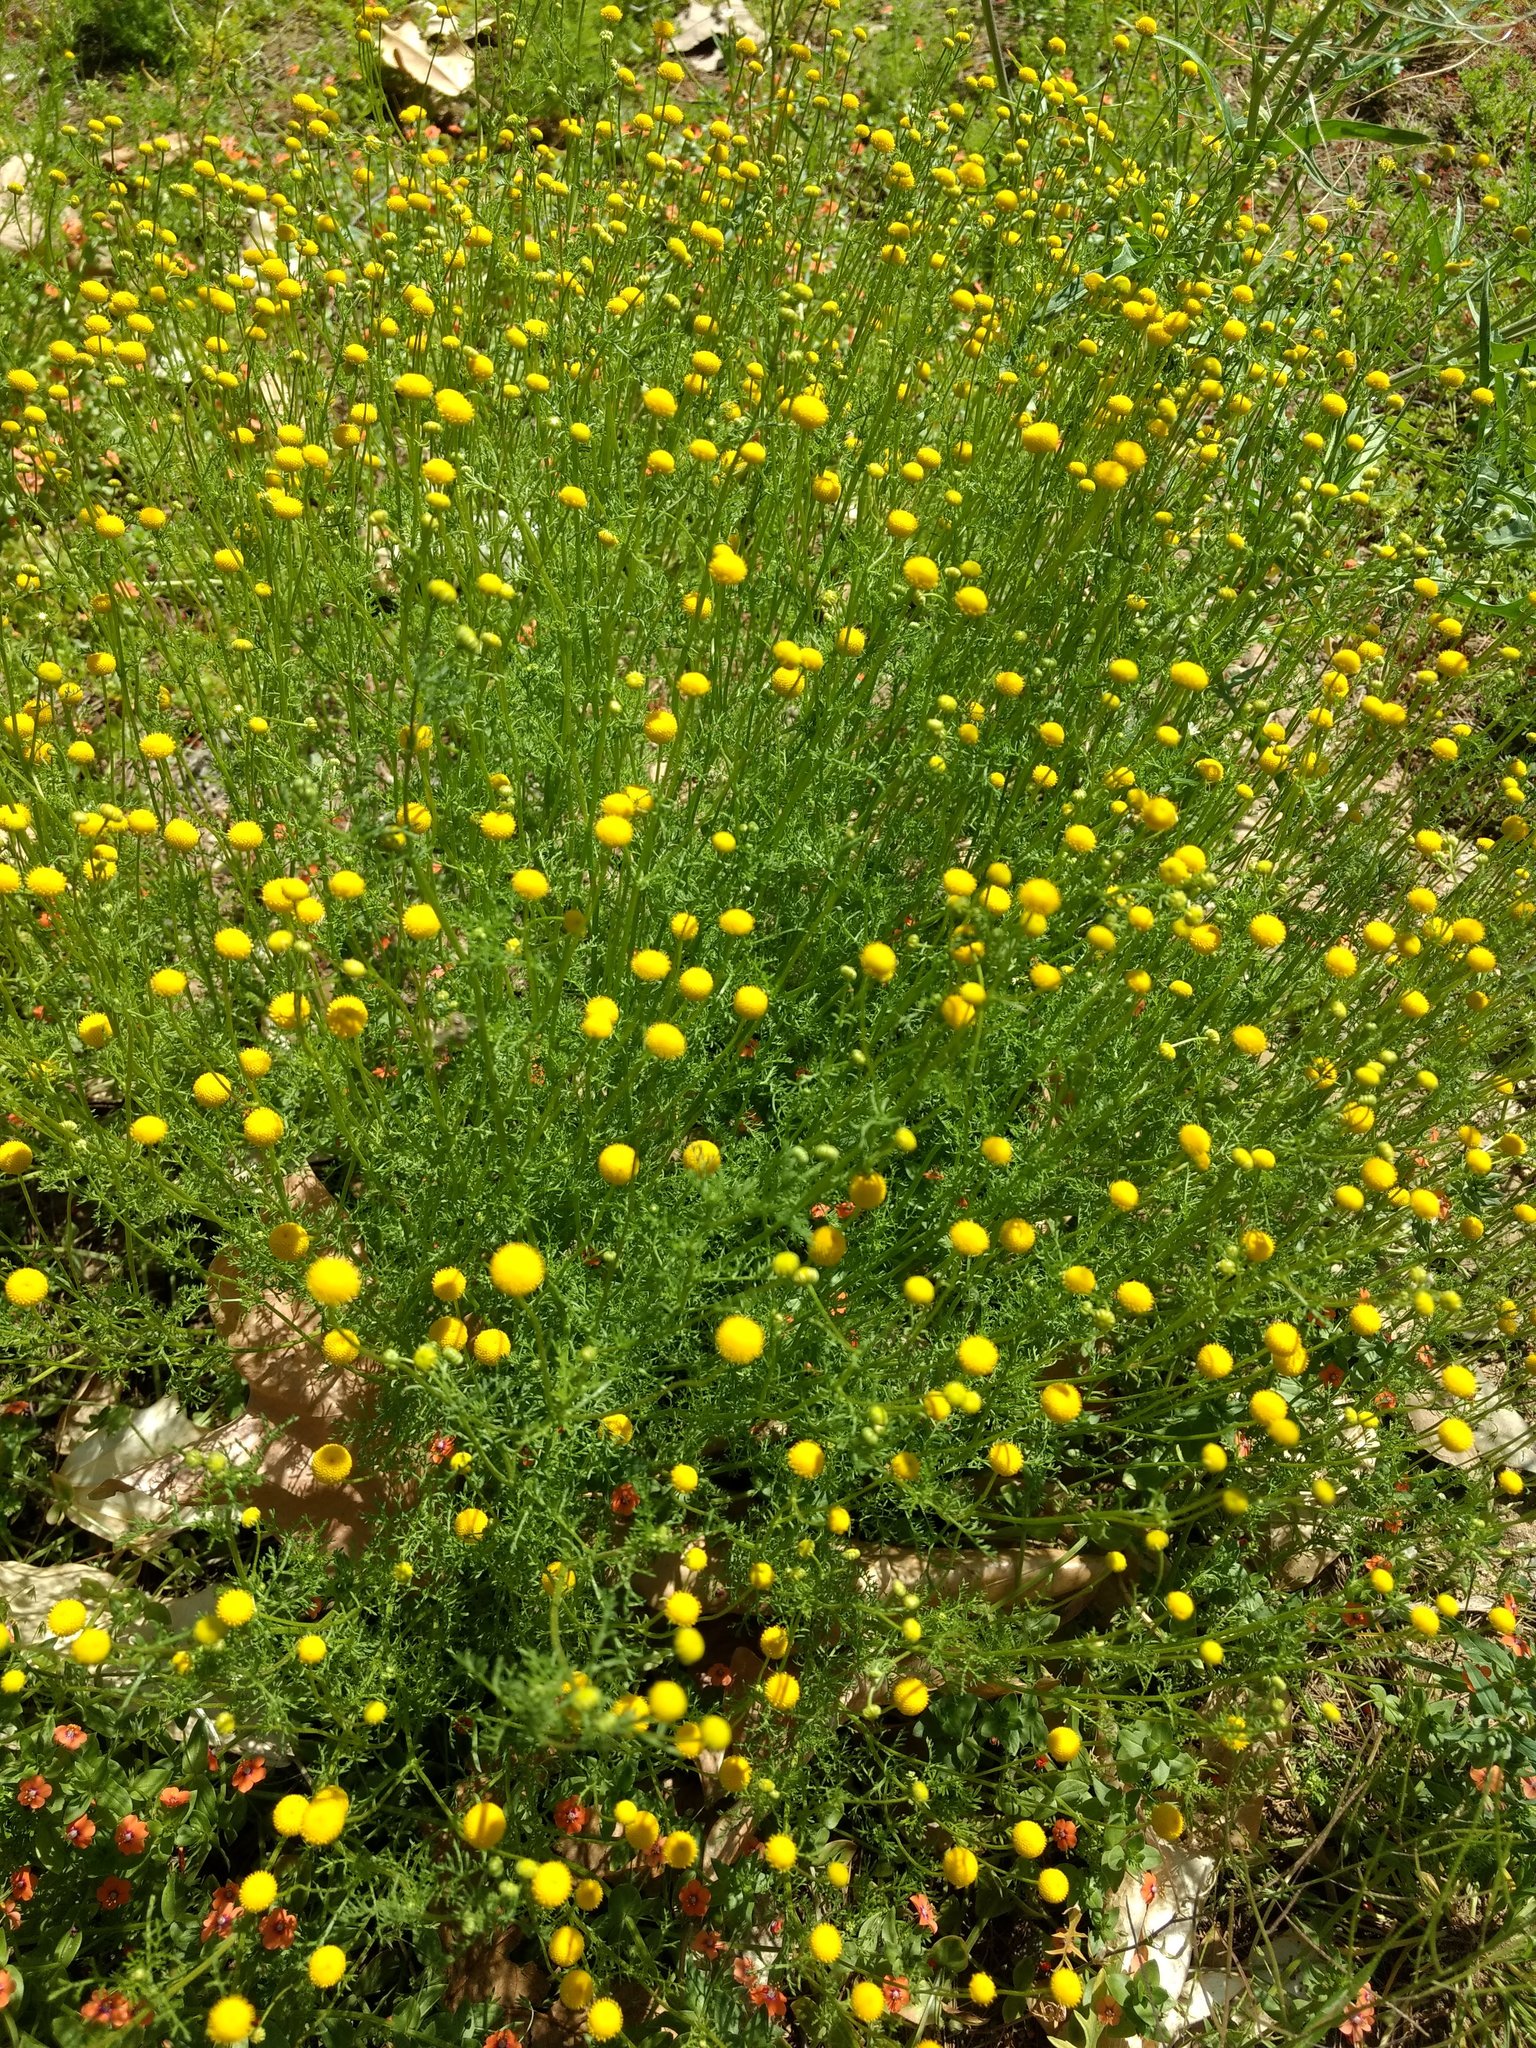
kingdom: Plantae
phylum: Tracheophyta
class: Magnoliopsida
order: Asterales
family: Asteraceae
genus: Oncosiphon
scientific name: Oncosiphon pilulifer
